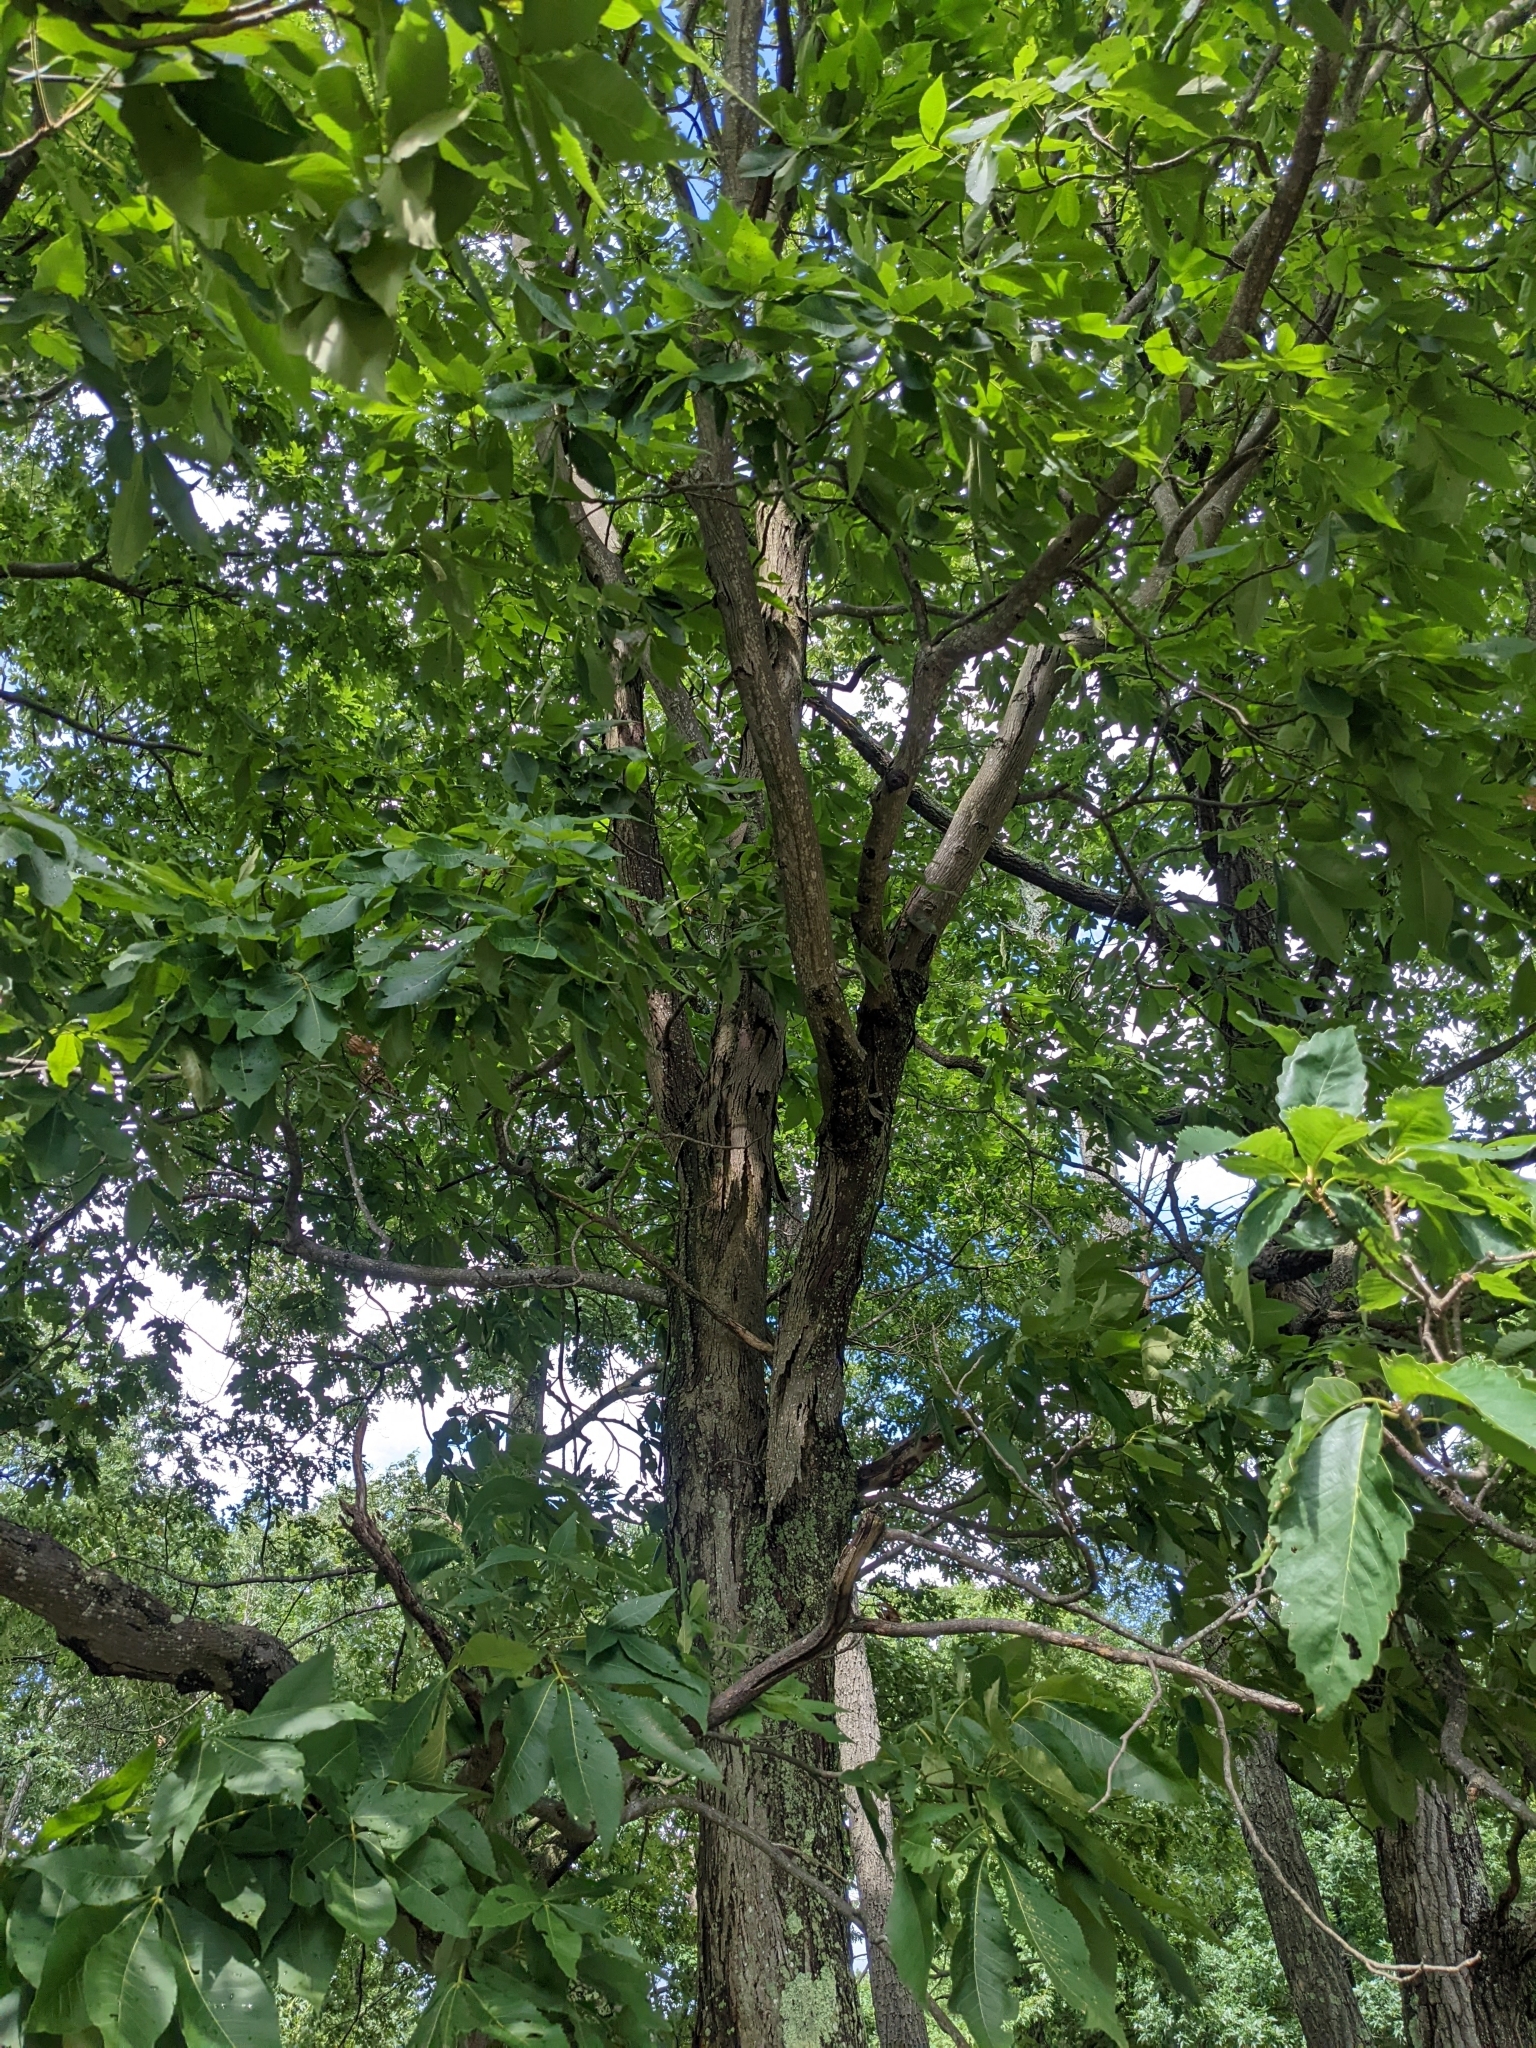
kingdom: Plantae
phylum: Tracheophyta
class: Magnoliopsida
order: Fagales
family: Juglandaceae
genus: Carya
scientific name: Carya ovata
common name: Shagbark hickory
